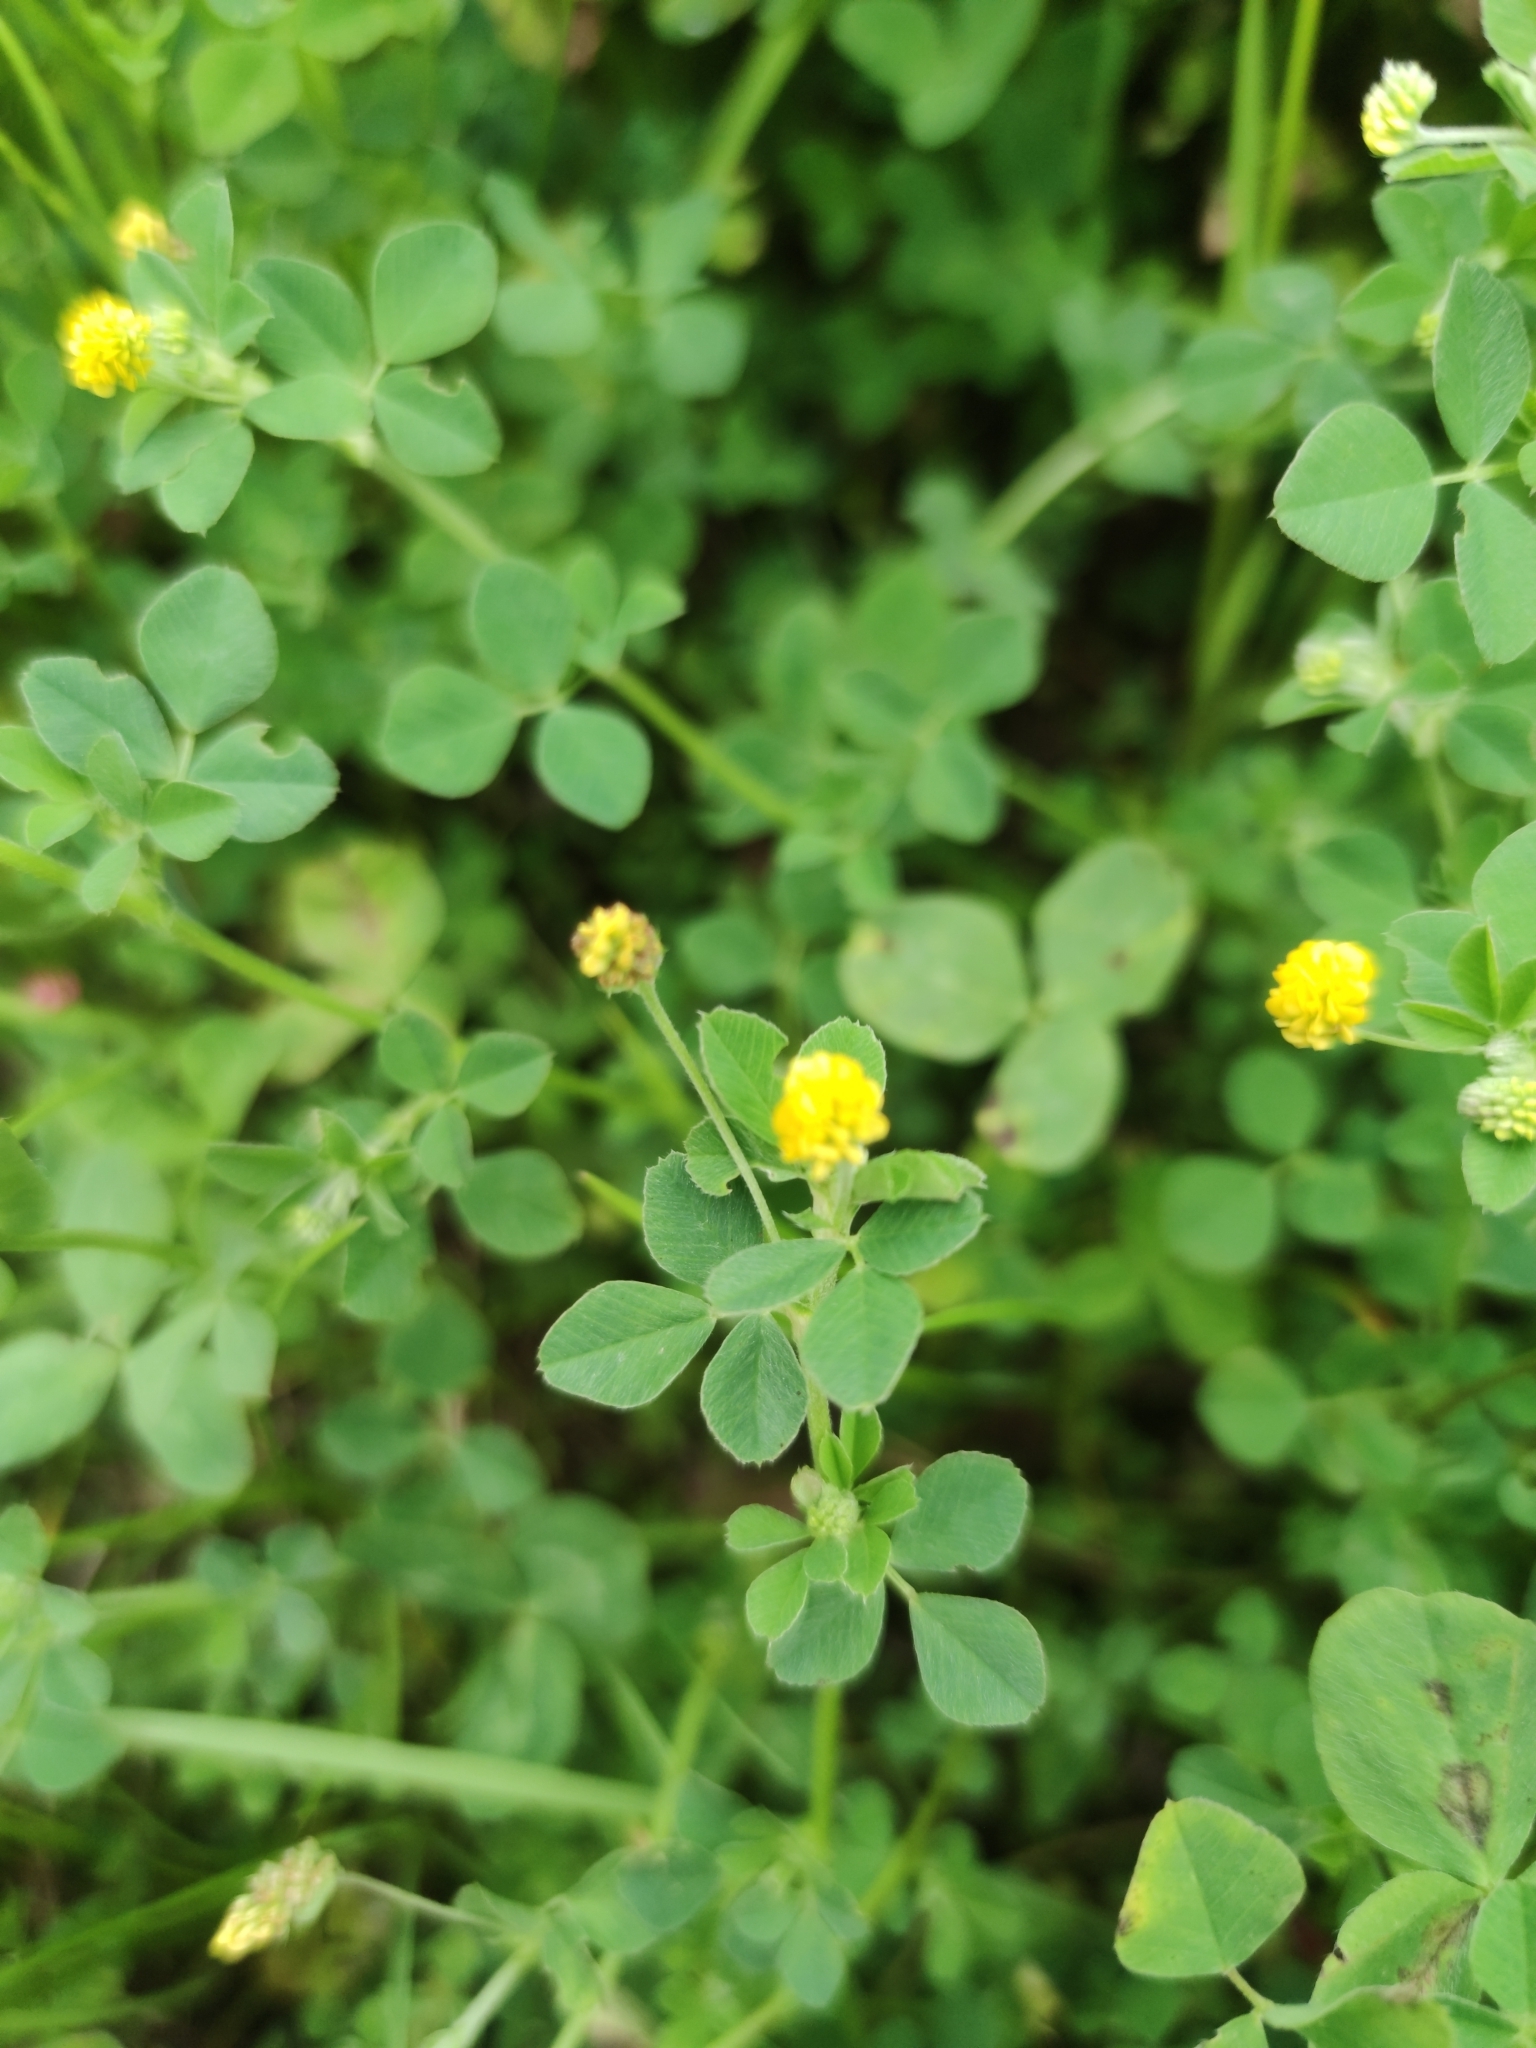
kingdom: Plantae
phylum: Tracheophyta
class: Magnoliopsida
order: Fabales
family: Fabaceae
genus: Medicago
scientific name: Medicago lupulina
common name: Black medick
